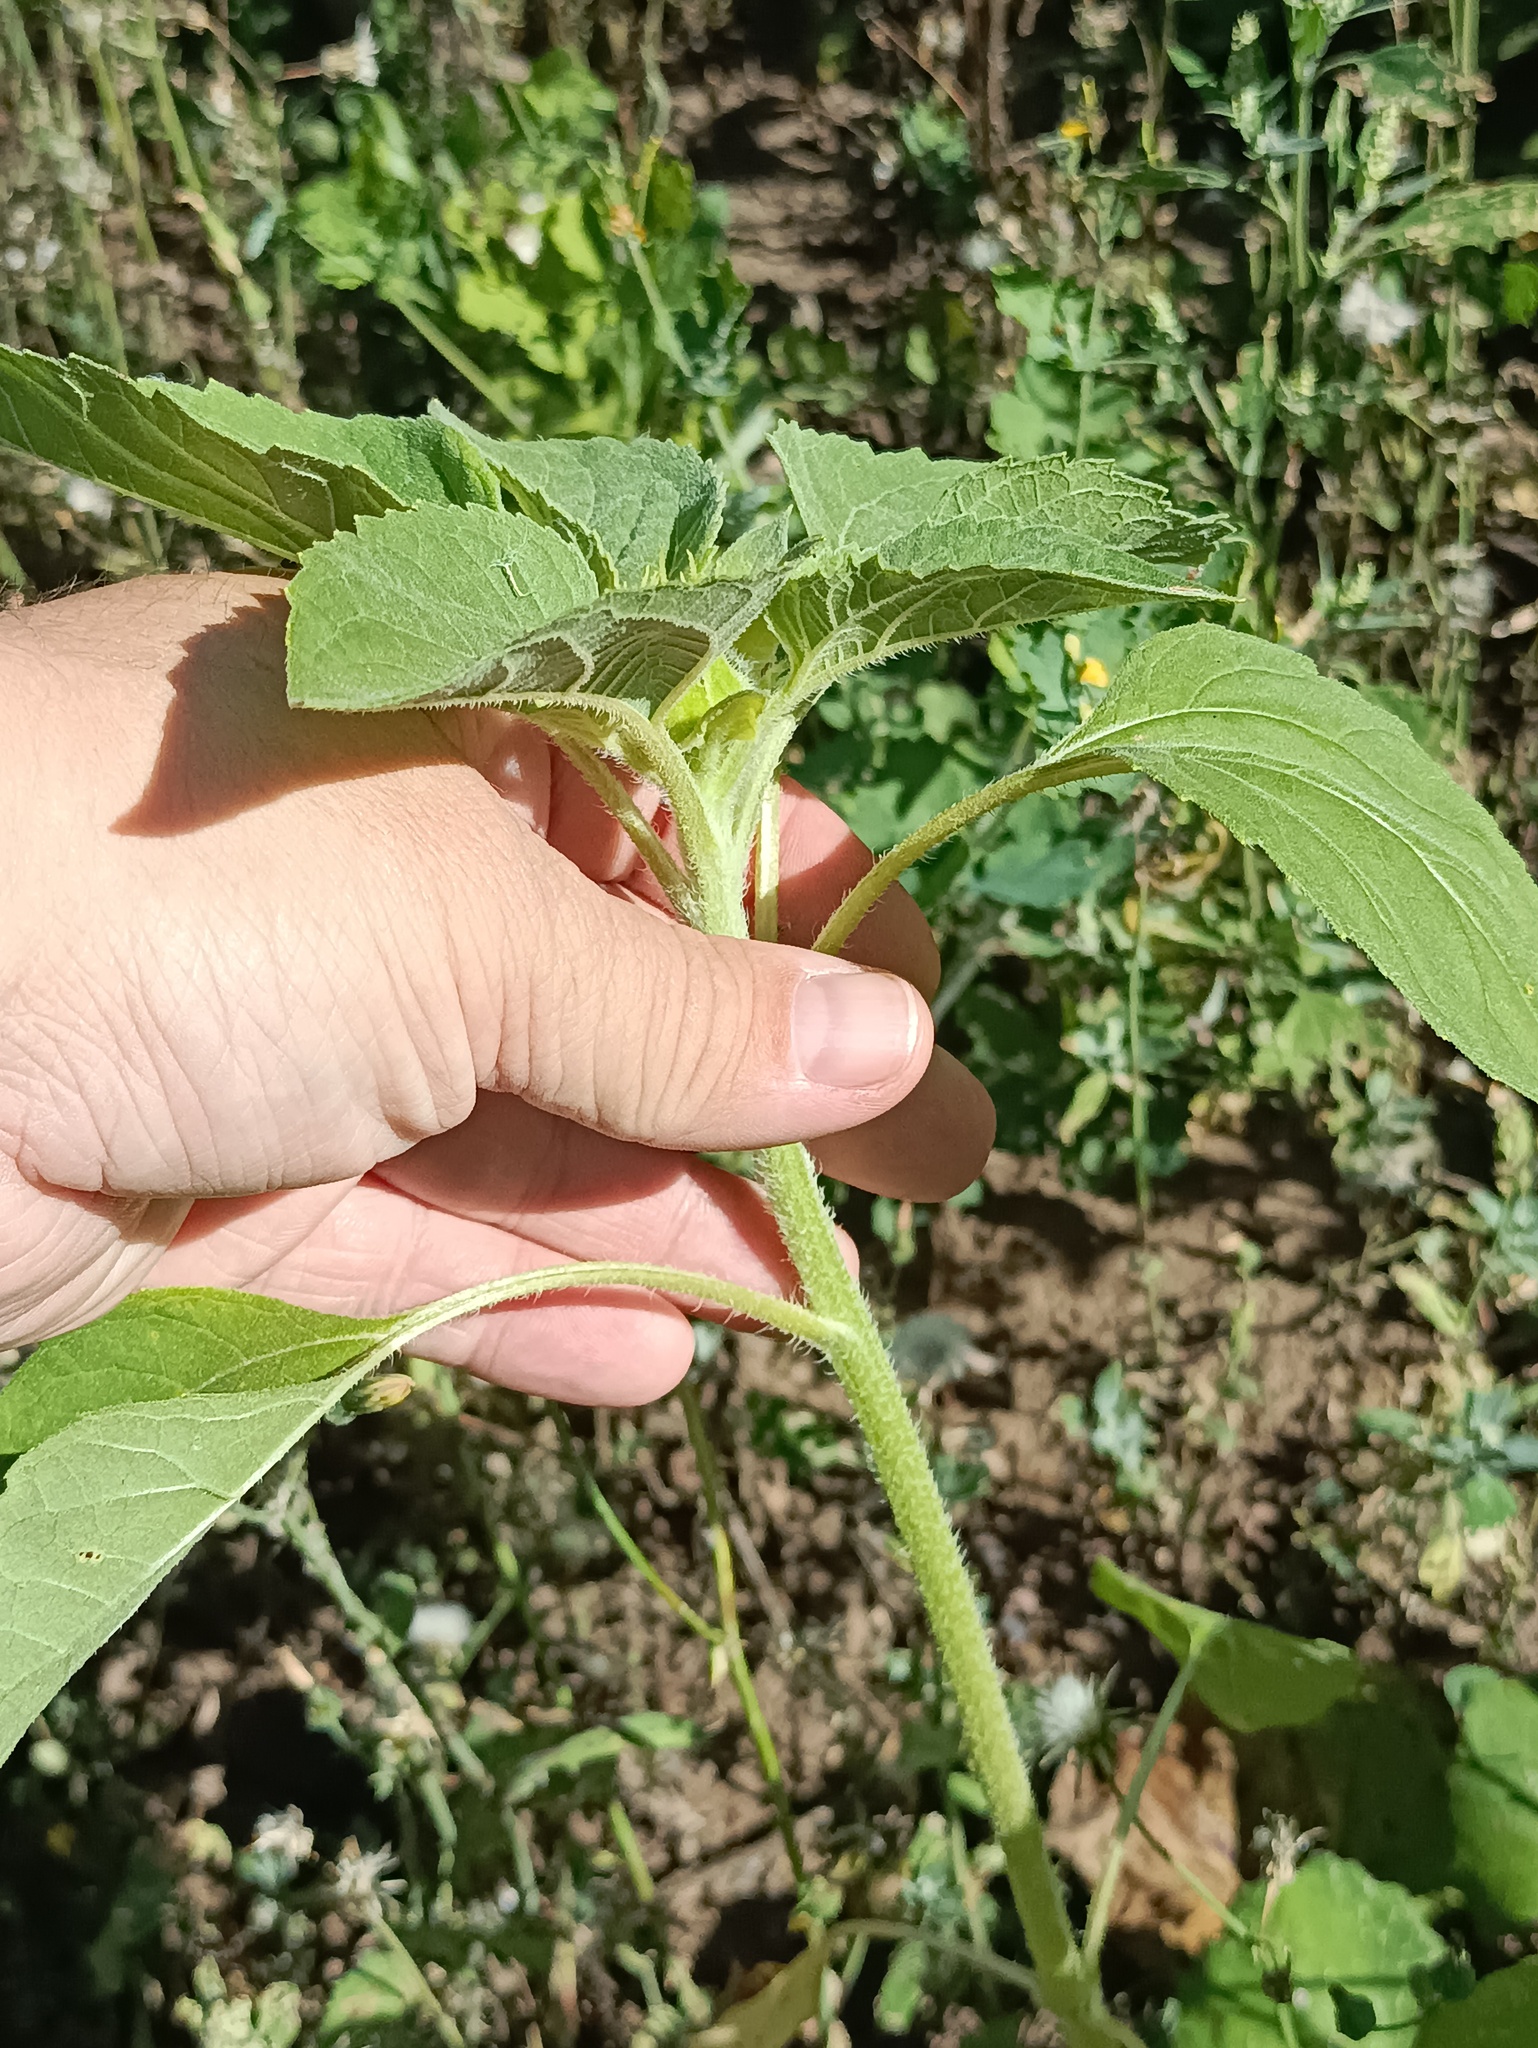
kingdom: Plantae
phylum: Tracheophyta
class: Magnoliopsida
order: Asterales
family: Asteraceae
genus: Helianthus
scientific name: Helianthus annuus
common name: Sunflower
